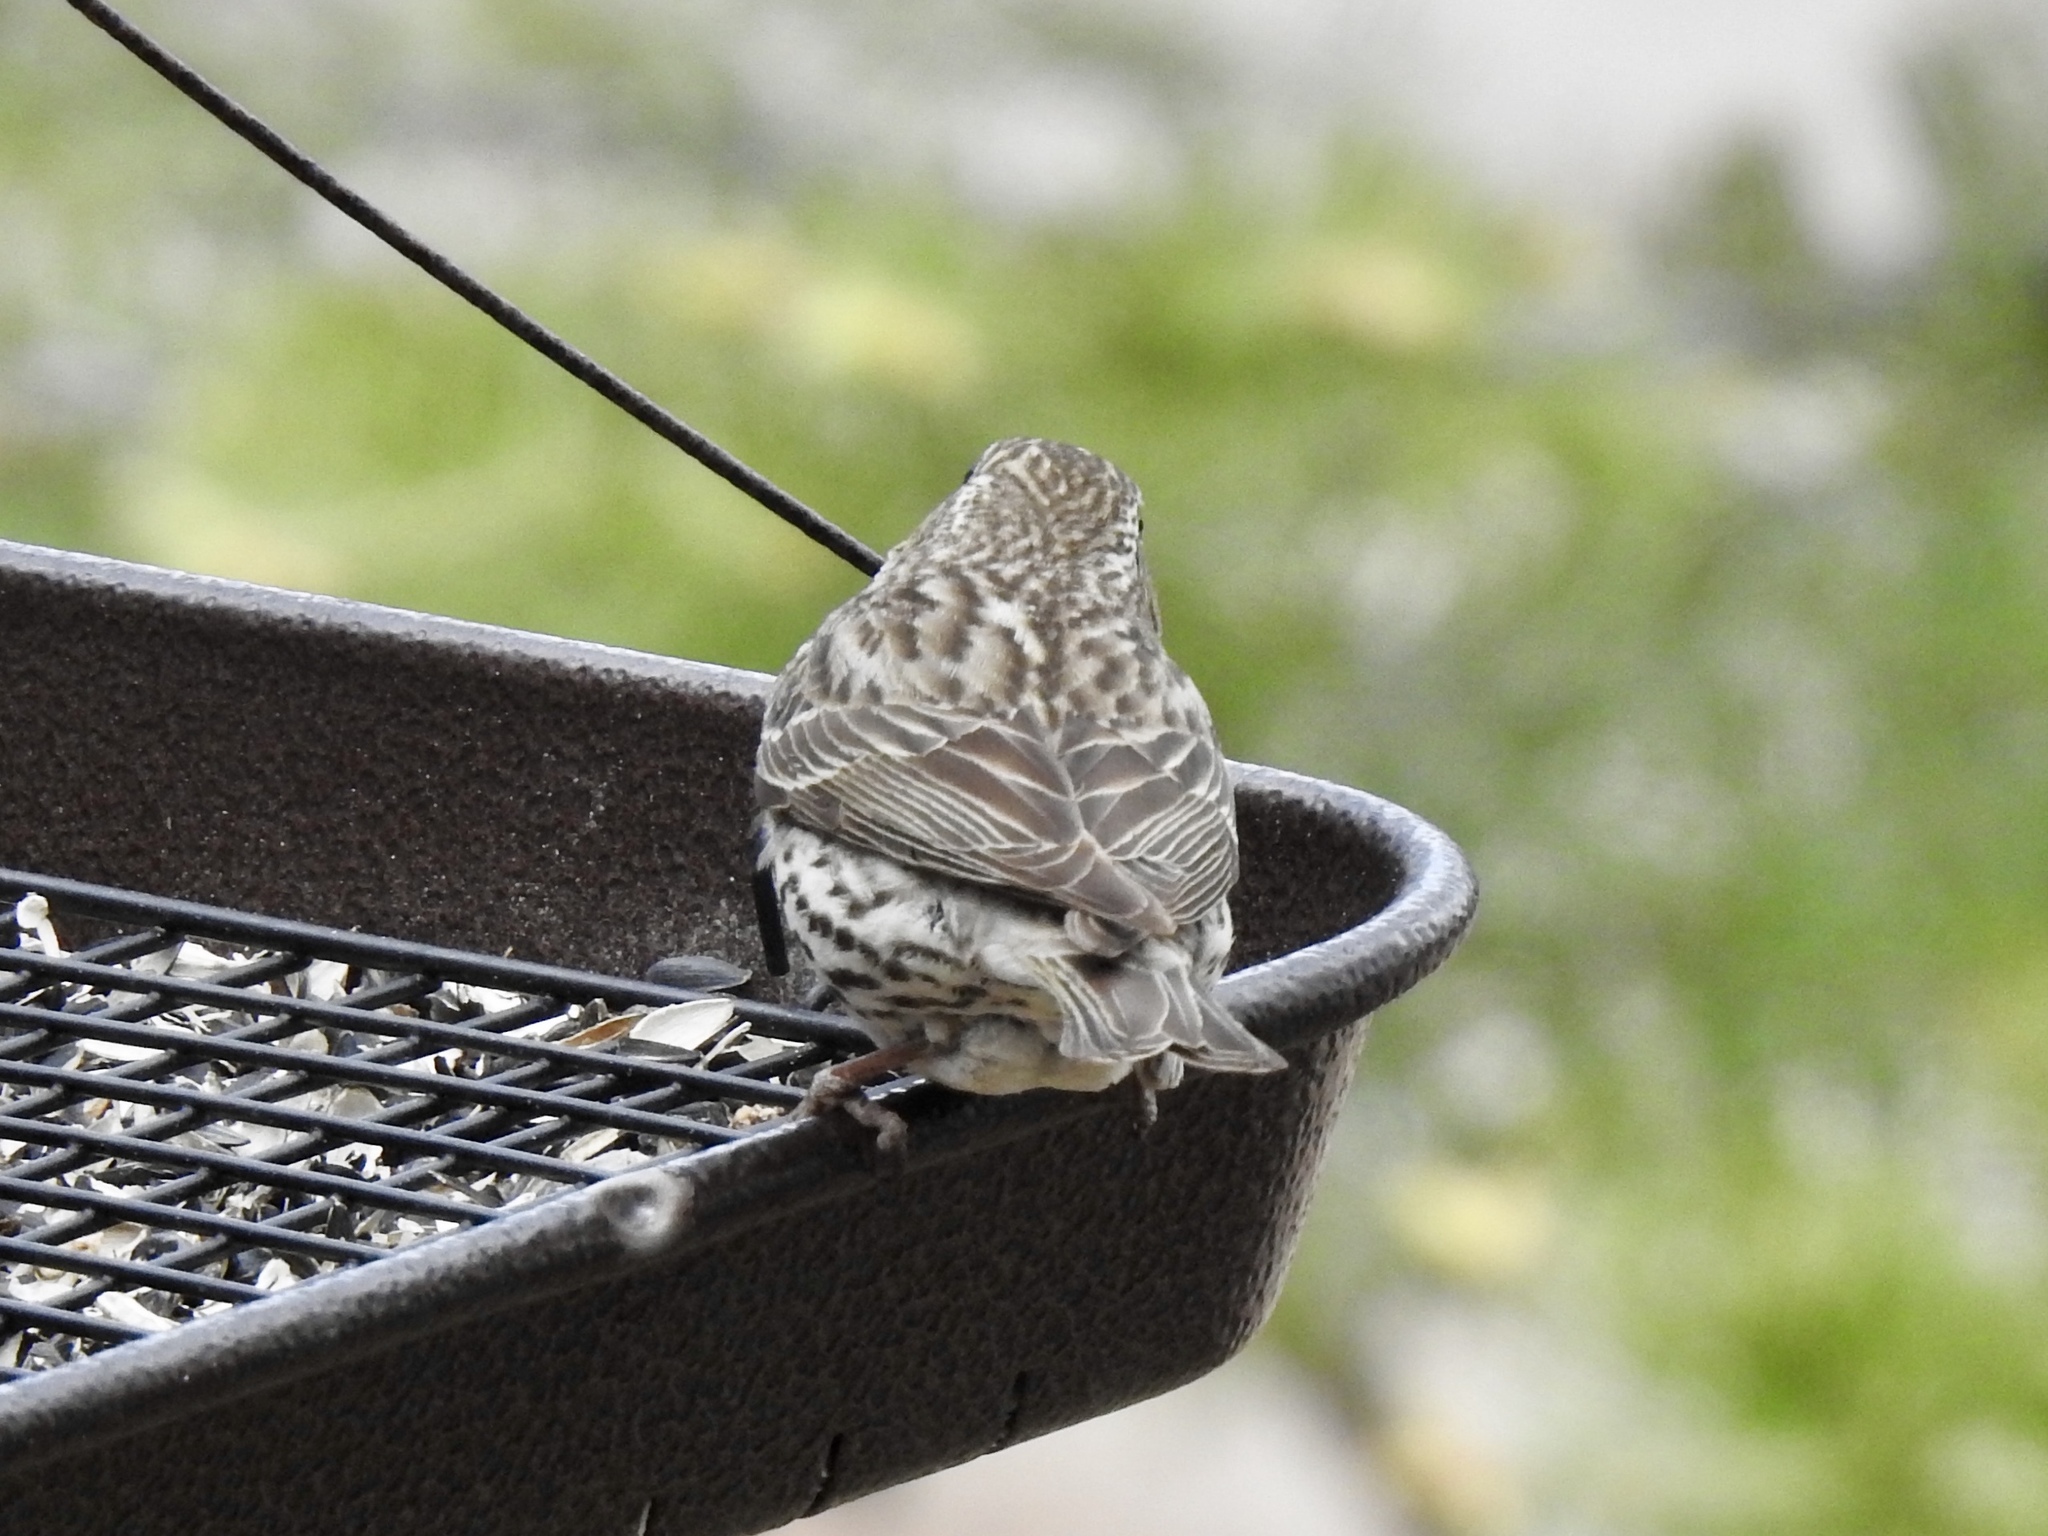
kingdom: Animalia
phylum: Chordata
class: Aves
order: Passeriformes
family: Fringillidae
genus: Haemorhous
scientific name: Haemorhous cassinii
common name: Cassin's finch
